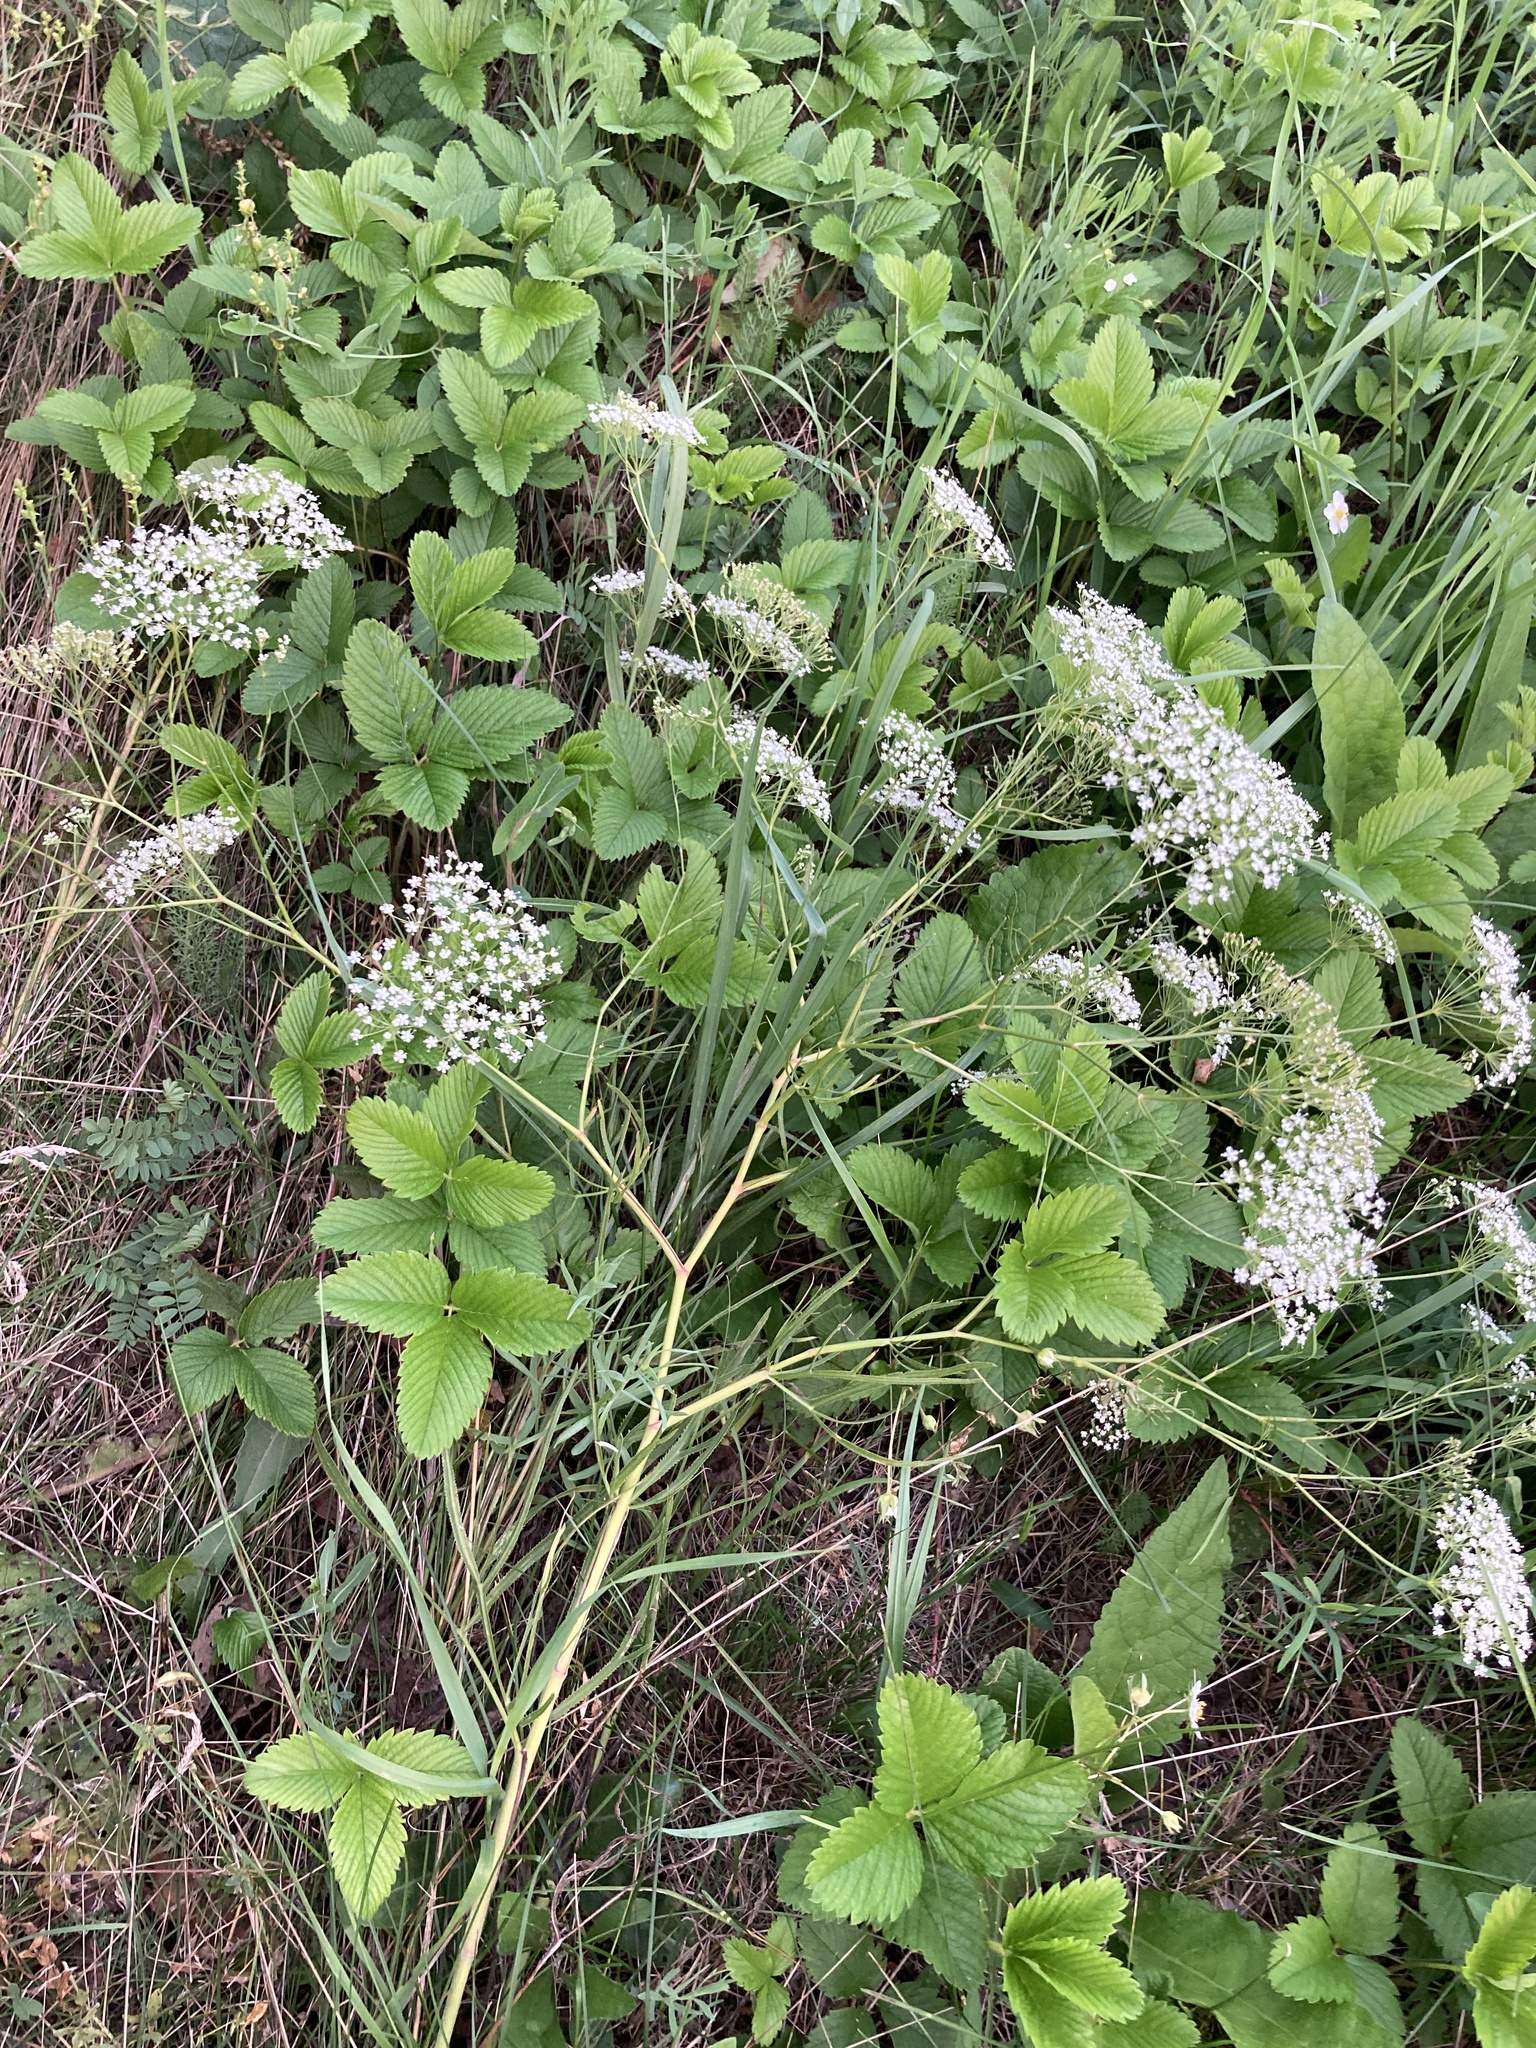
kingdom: Plantae
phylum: Tracheophyta
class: Magnoliopsida
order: Apiales
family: Apiaceae
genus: Falcaria
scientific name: Falcaria vulgaris
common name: Longleaf
